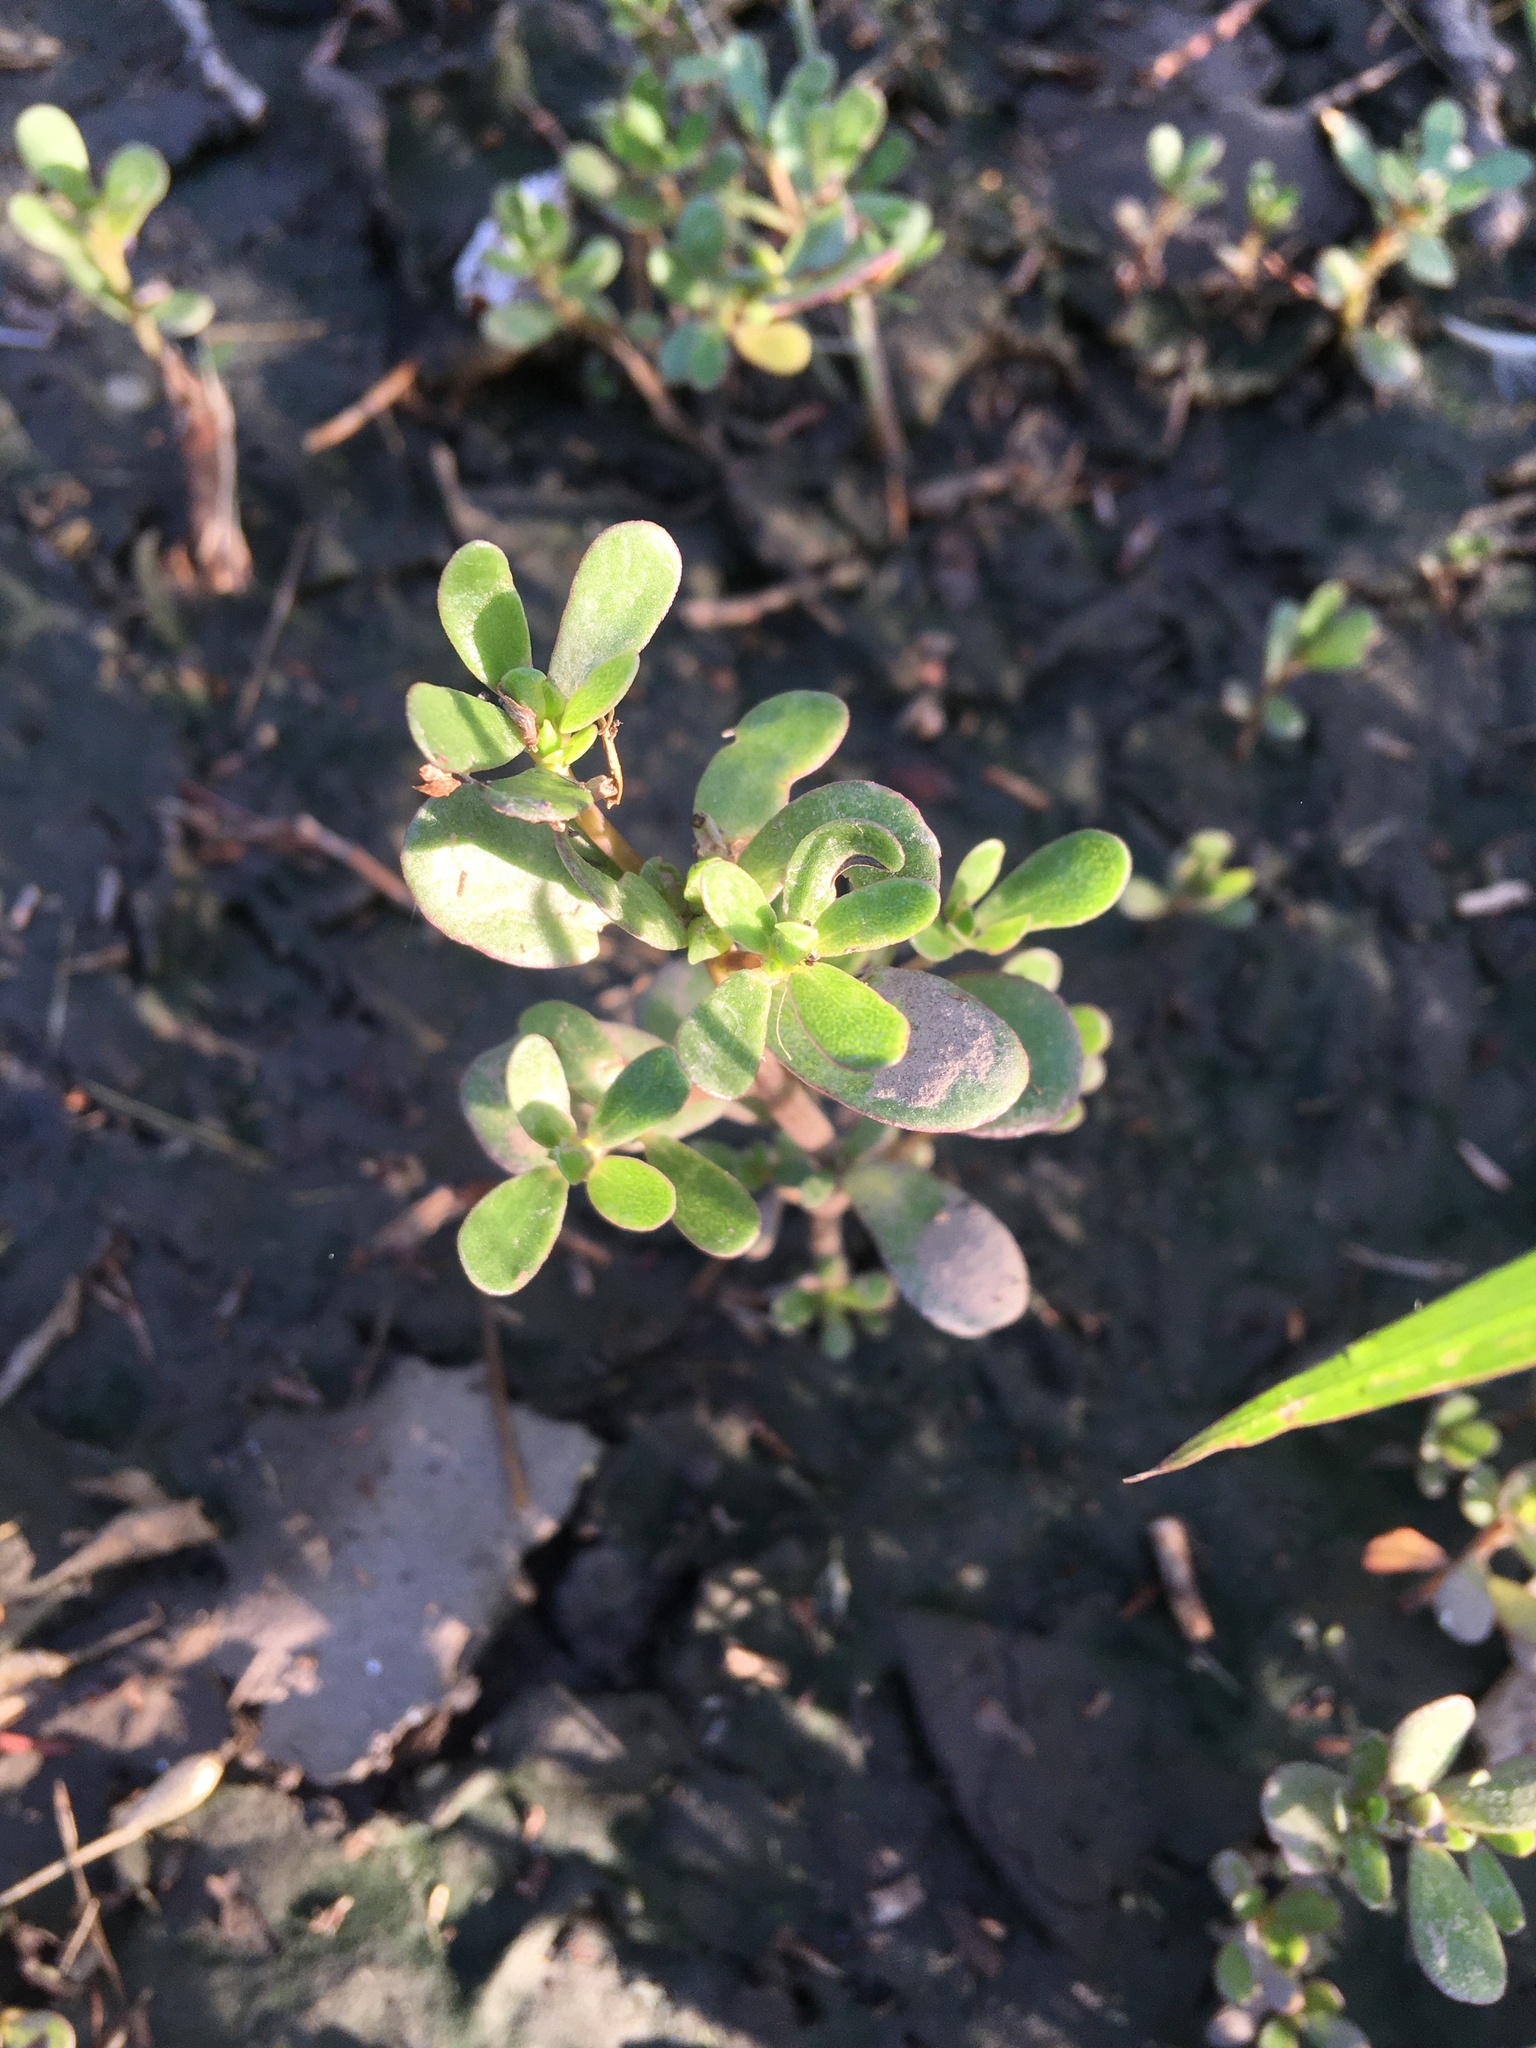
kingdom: Plantae
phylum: Tracheophyta
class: Magnoliopsida
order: Caryophyllales
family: Portulacaceae
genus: Portulaca
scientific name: Portulaca oleracea
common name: Common purslane
